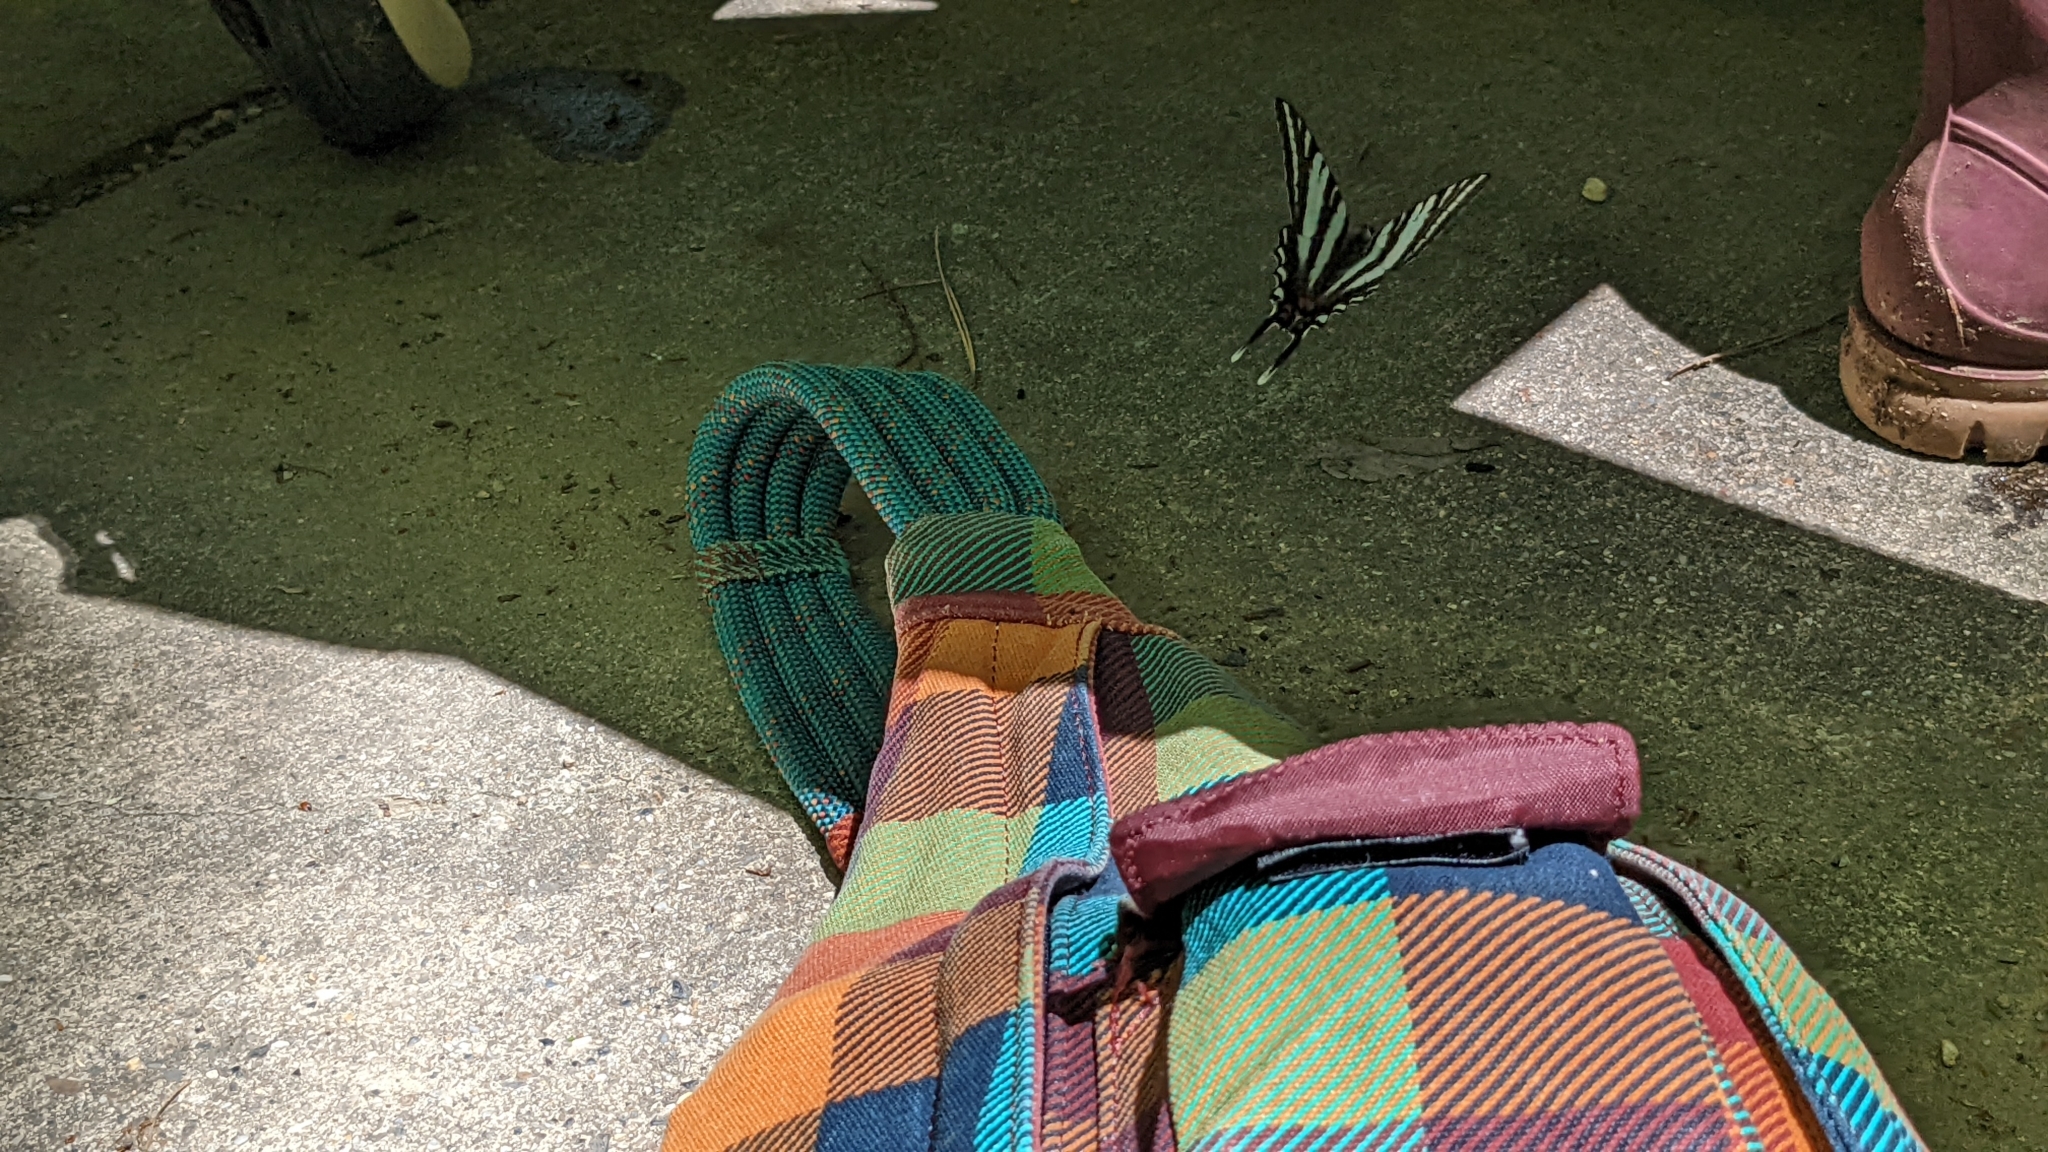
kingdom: Animalia
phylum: Arthropoda
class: Insecta
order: Lepidoptera
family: Papilionidae
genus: Protographium
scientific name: Protographium marcellus
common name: Zebra swallowtail
